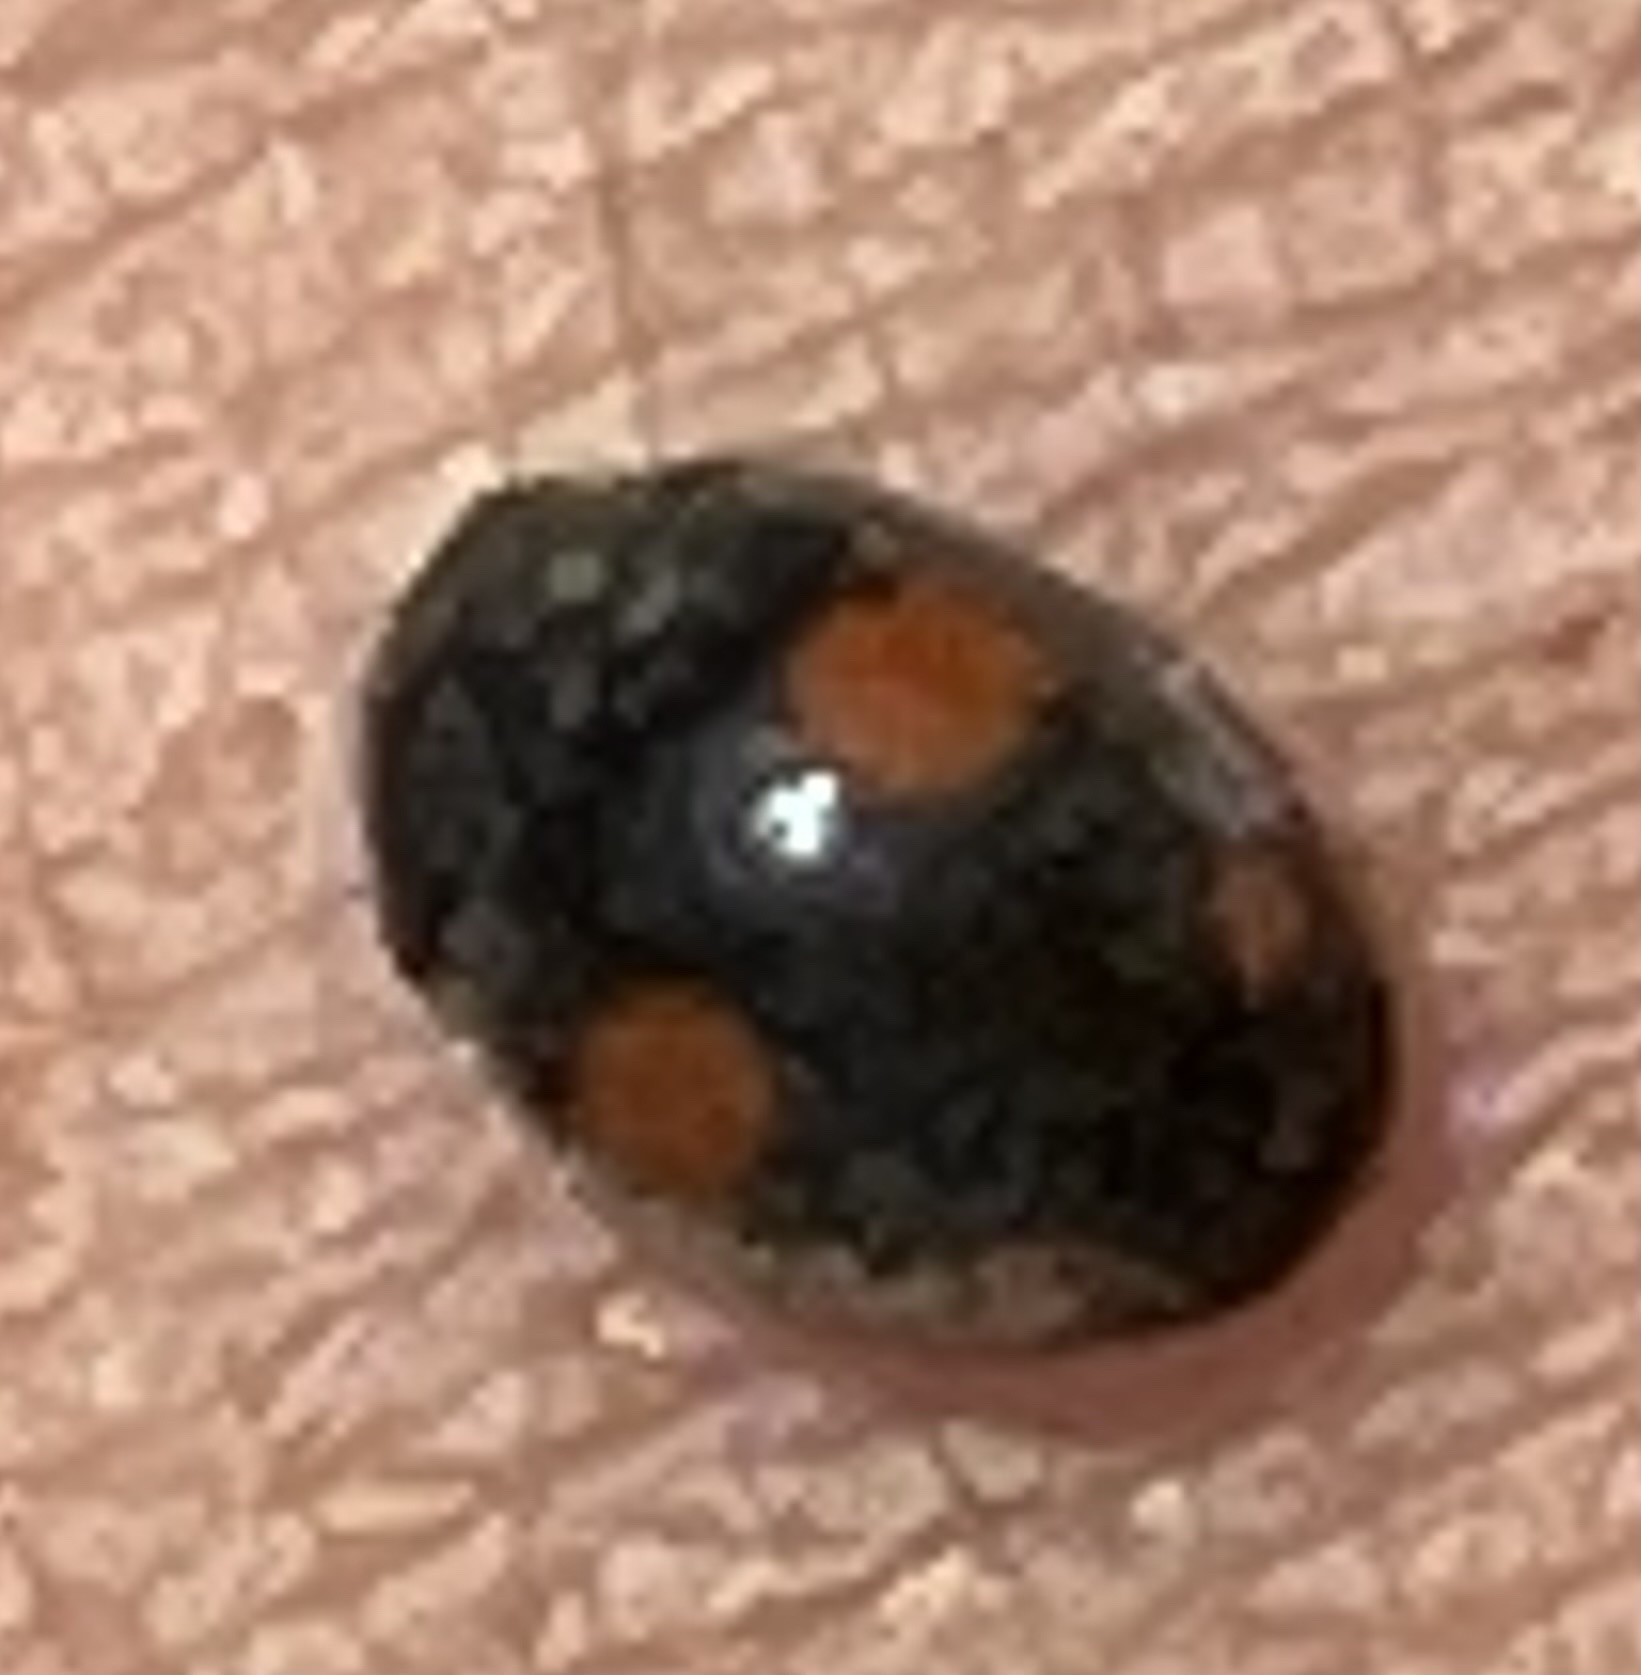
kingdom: Animalia
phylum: Arthropoda
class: Insecta
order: Coleoptera
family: Coccinellidae
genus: Platynaspis
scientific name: Platynaspis luteorubra
